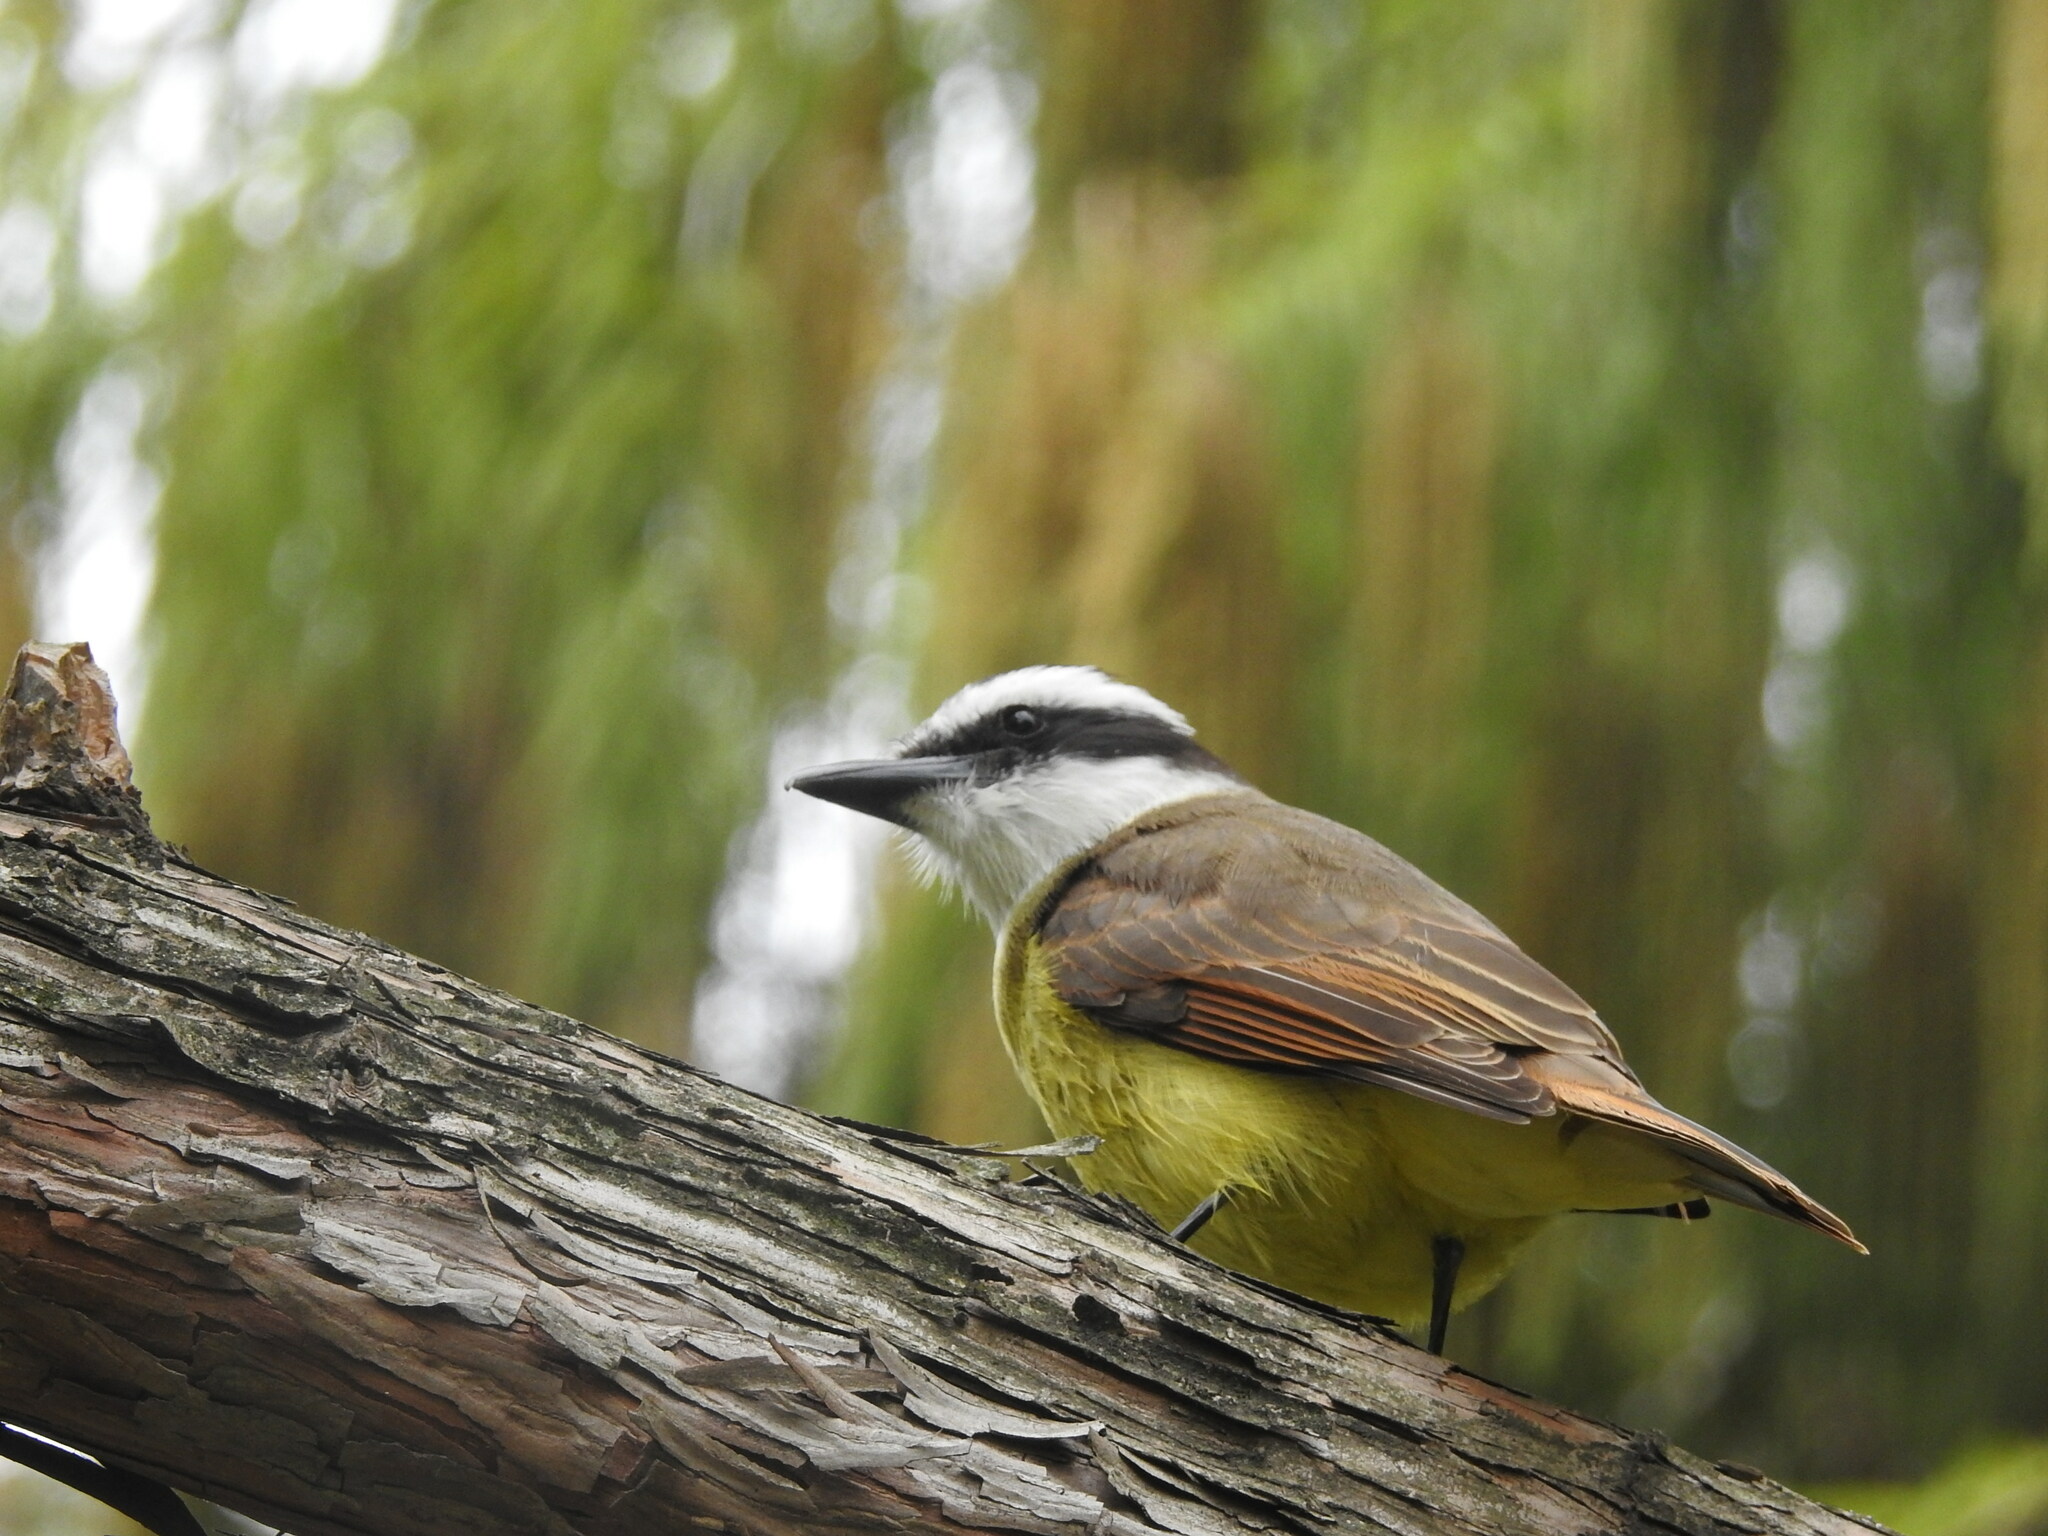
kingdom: Animalia
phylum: Chordata
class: Aves
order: Passeriformes
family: Tyrannidae
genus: Pitangus
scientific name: Pitangus sulphuratus
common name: Great kiskadee
